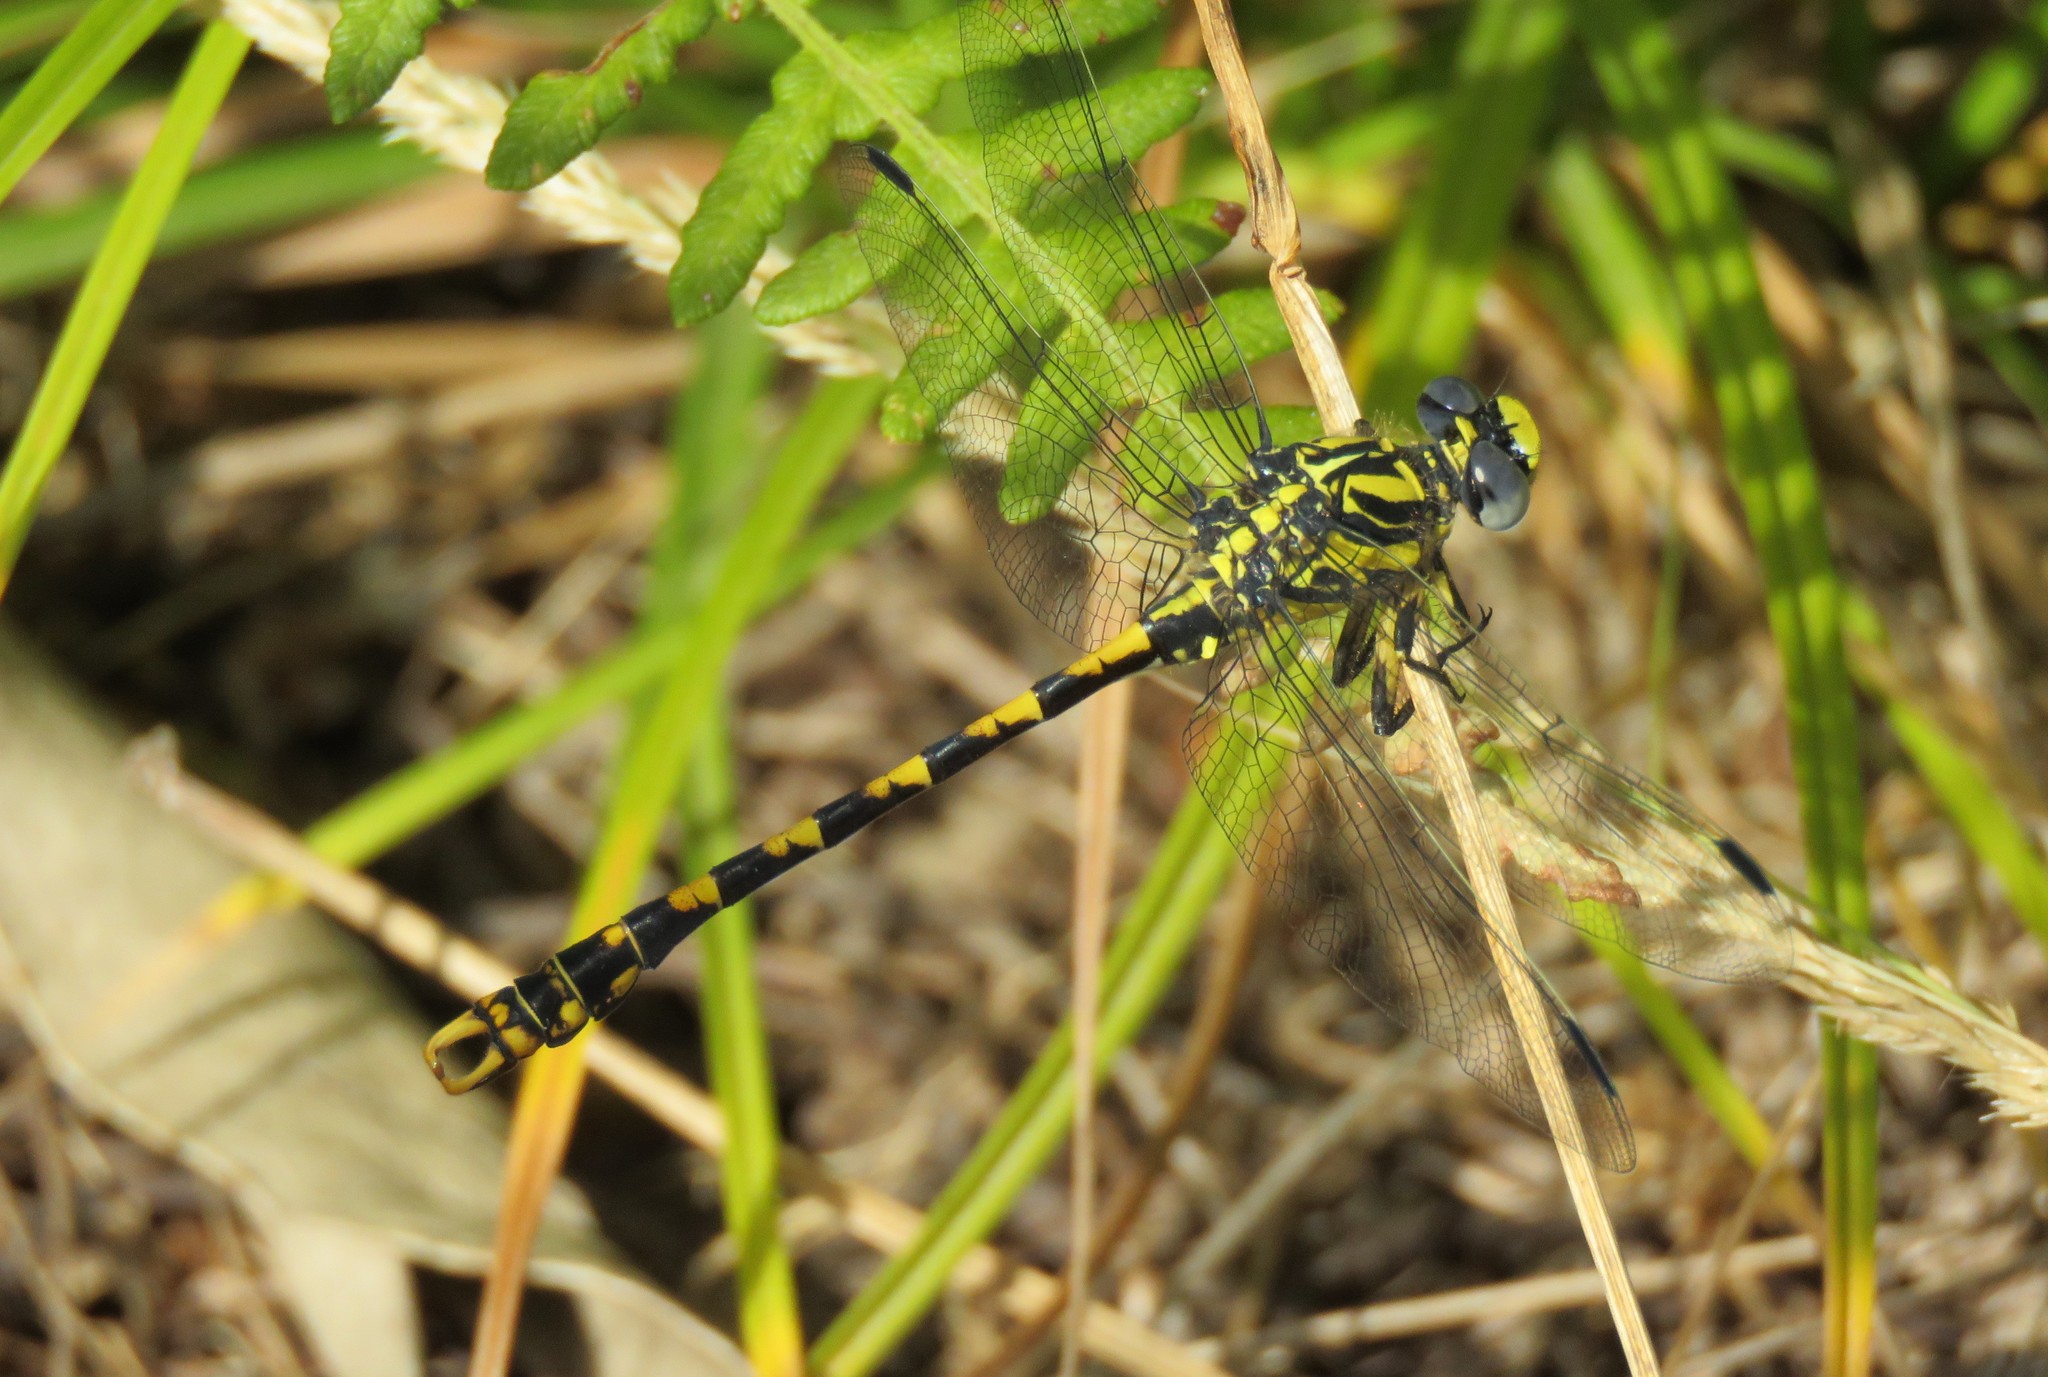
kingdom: Animalia
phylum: Arthropoda
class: Insecta
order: Odonata
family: Gomphidae
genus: Onychogomphus
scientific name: Onychogomphus uncatus
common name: Large pincertail
